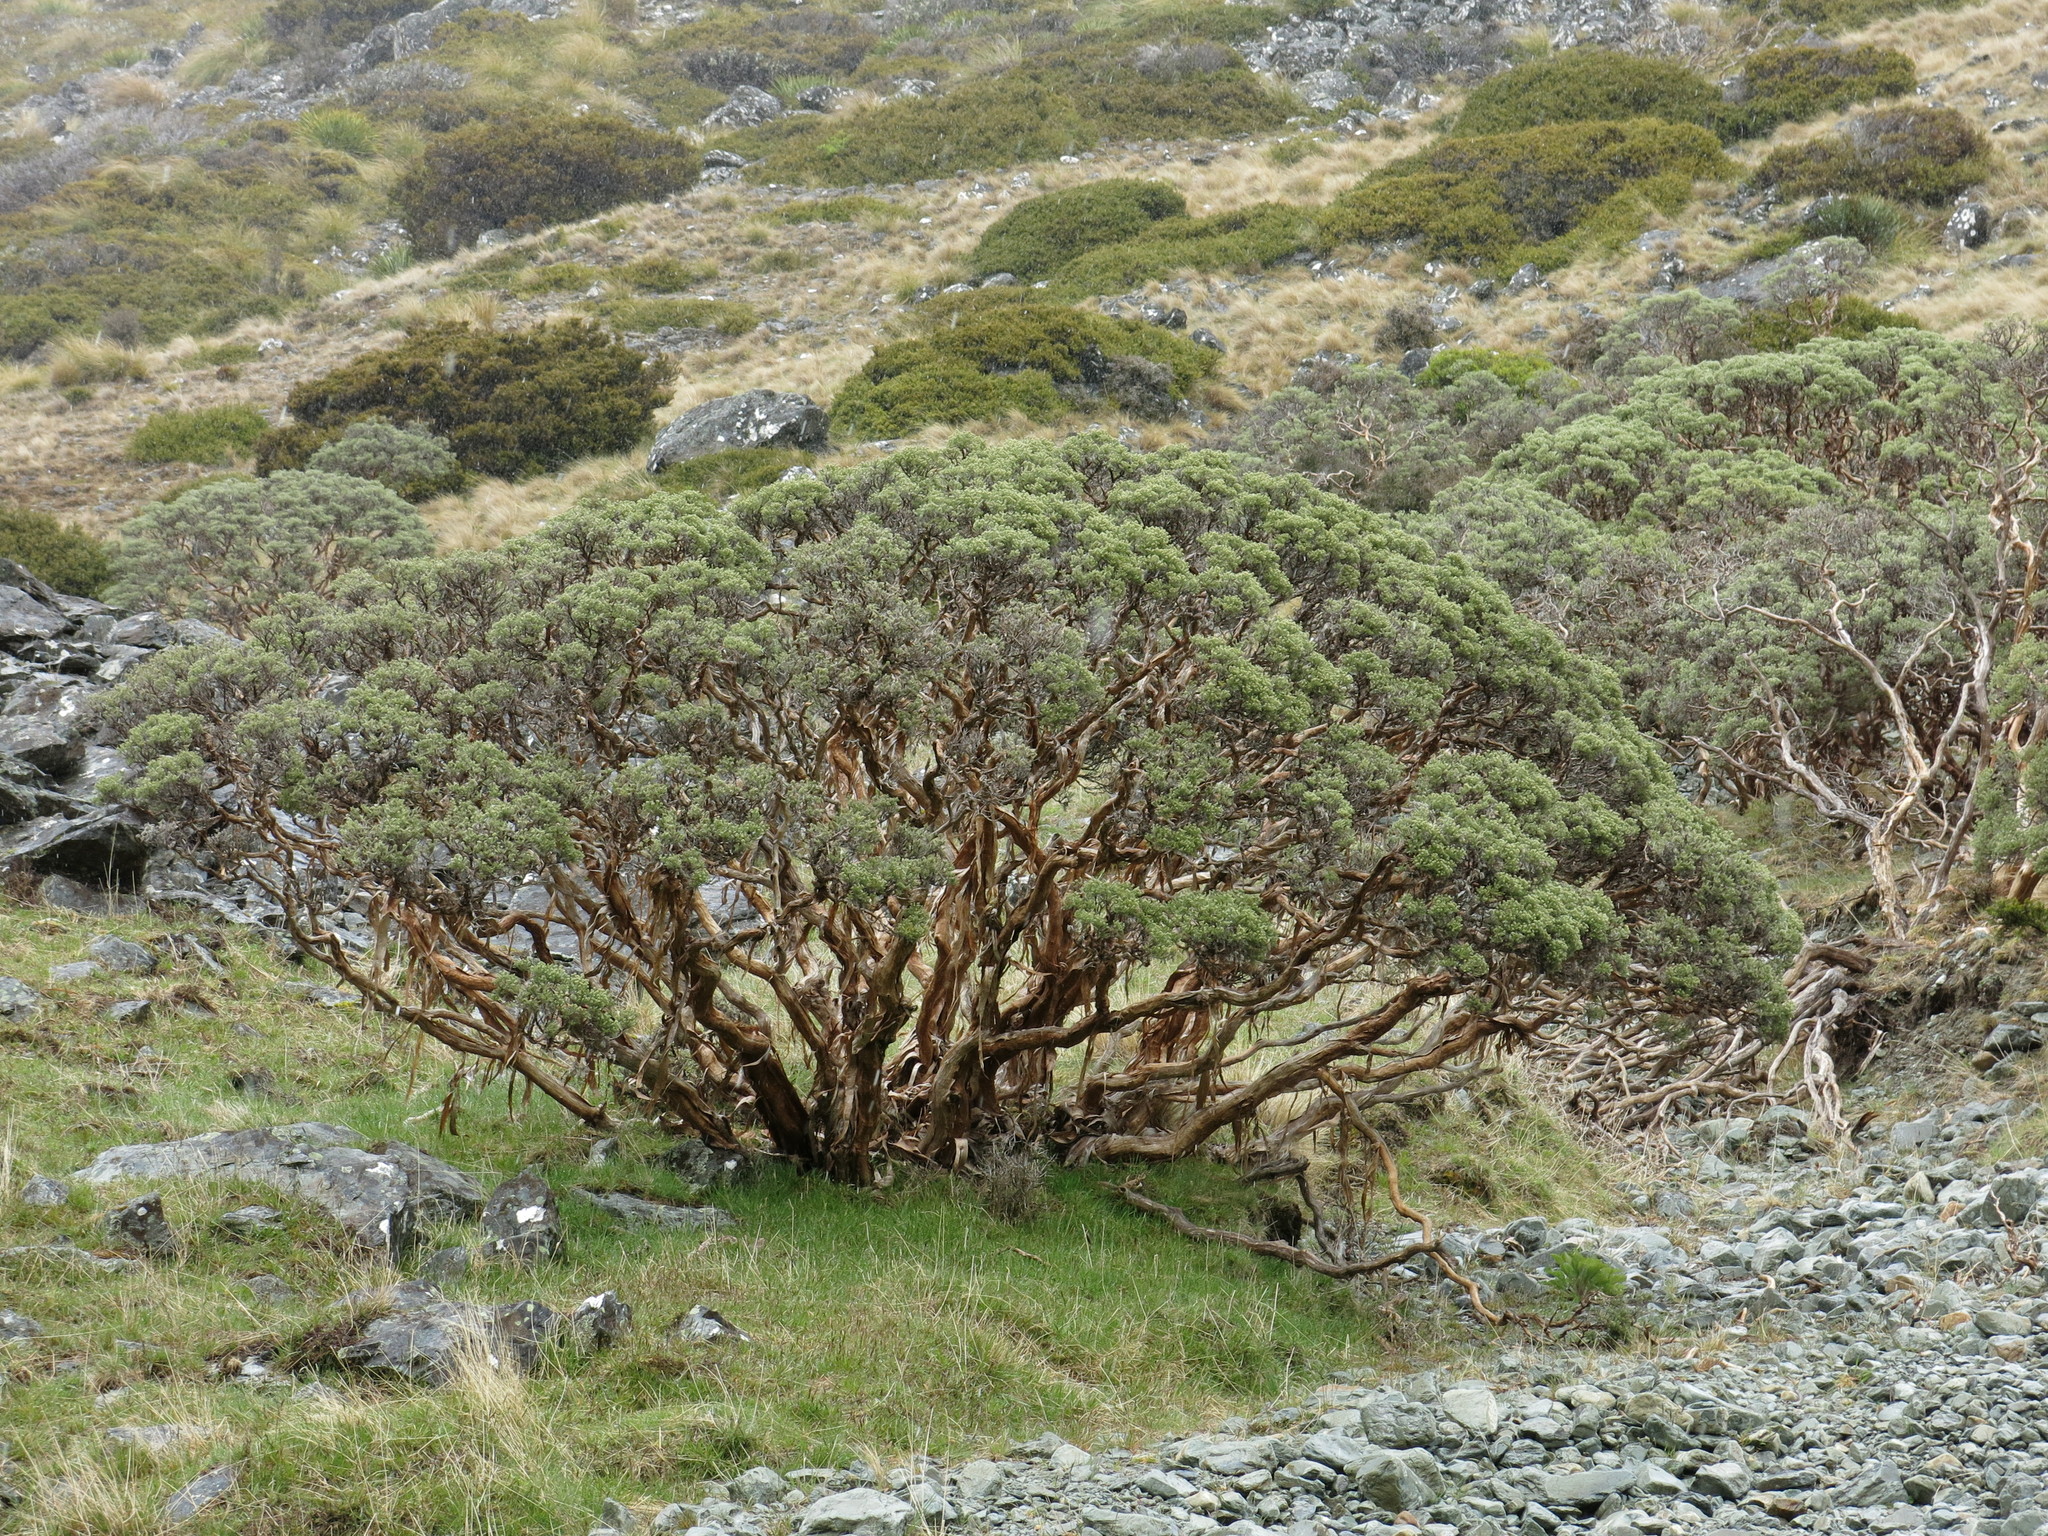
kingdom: Plantae
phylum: Tracheophyta
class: Magnoliopsida
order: Asterales
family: Asteraceae
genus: Brachyglottis
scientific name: Brachyglottis cassinioides
